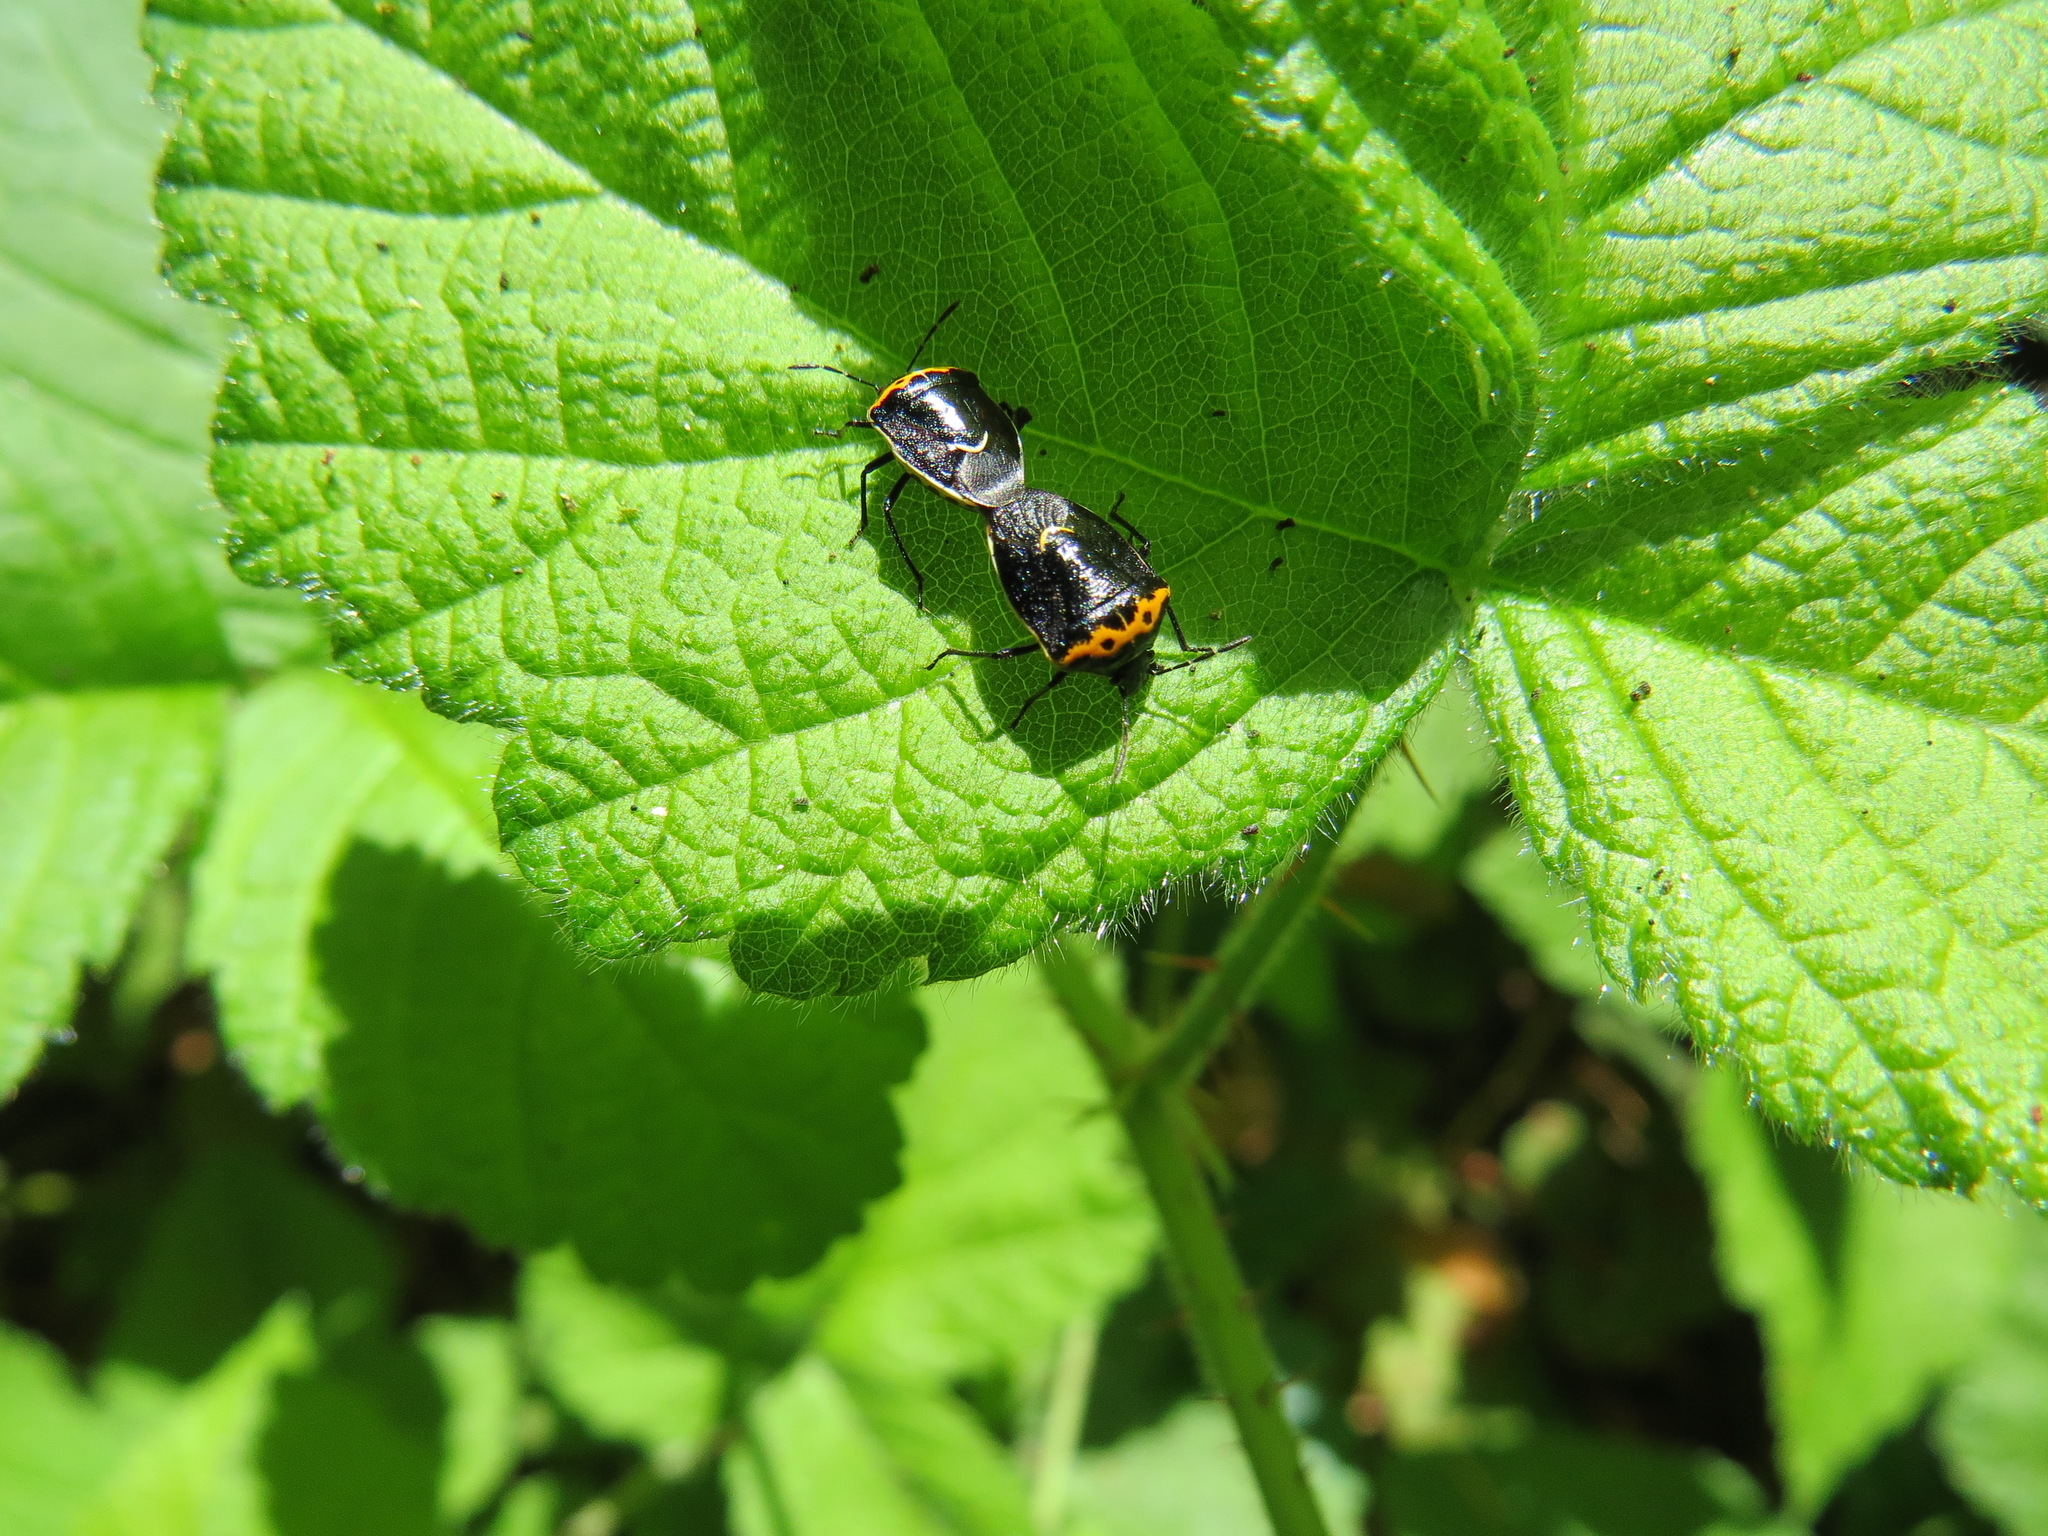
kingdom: Animalia
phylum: Arthropoda
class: Insecta
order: Hemiptera
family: Pentatomidae
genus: Cosmopepla
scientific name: Cosmopepla conspicillaris
